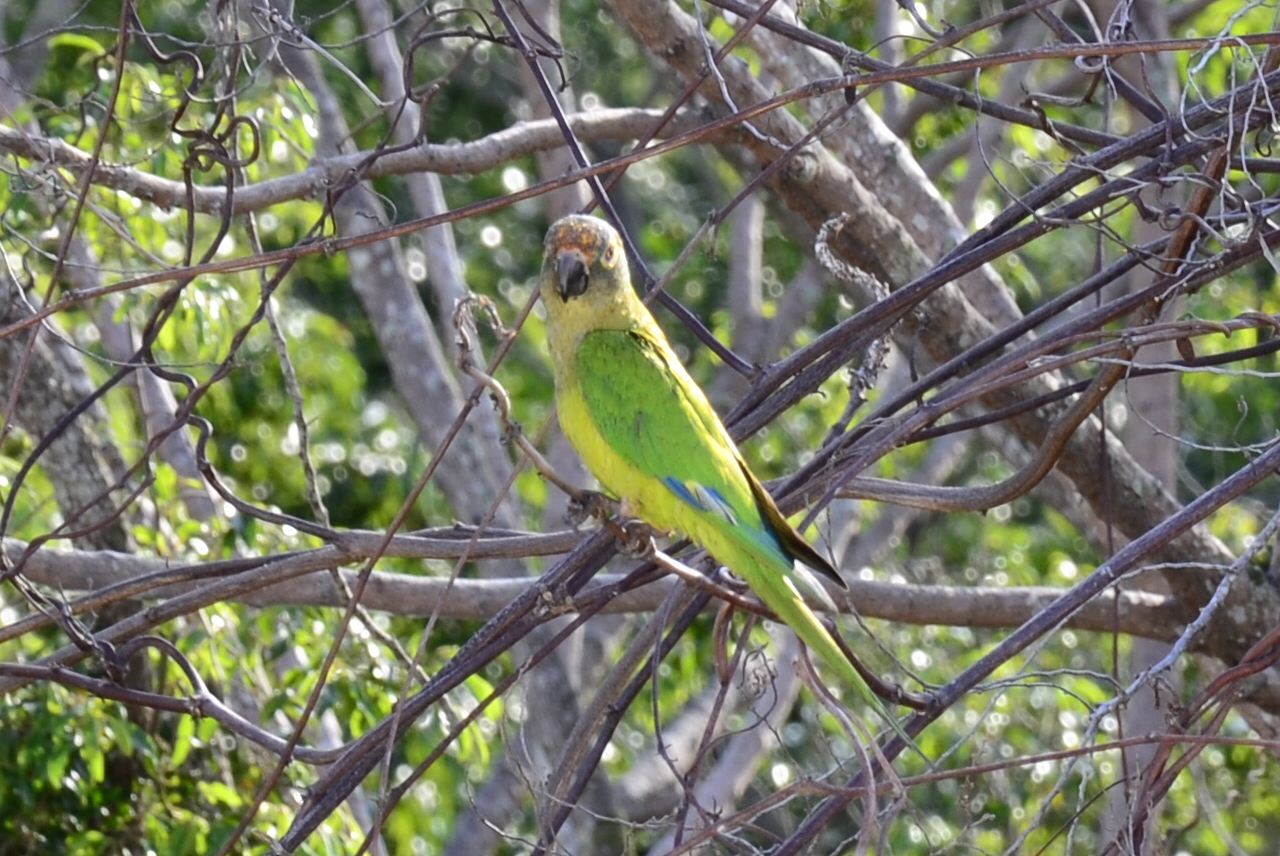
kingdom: Animalia
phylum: Chordata
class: Aves
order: Psittaciformes
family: Psittacidae
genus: Aratinga
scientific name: Aratinga aurea
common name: Peach-fronted parakeet
